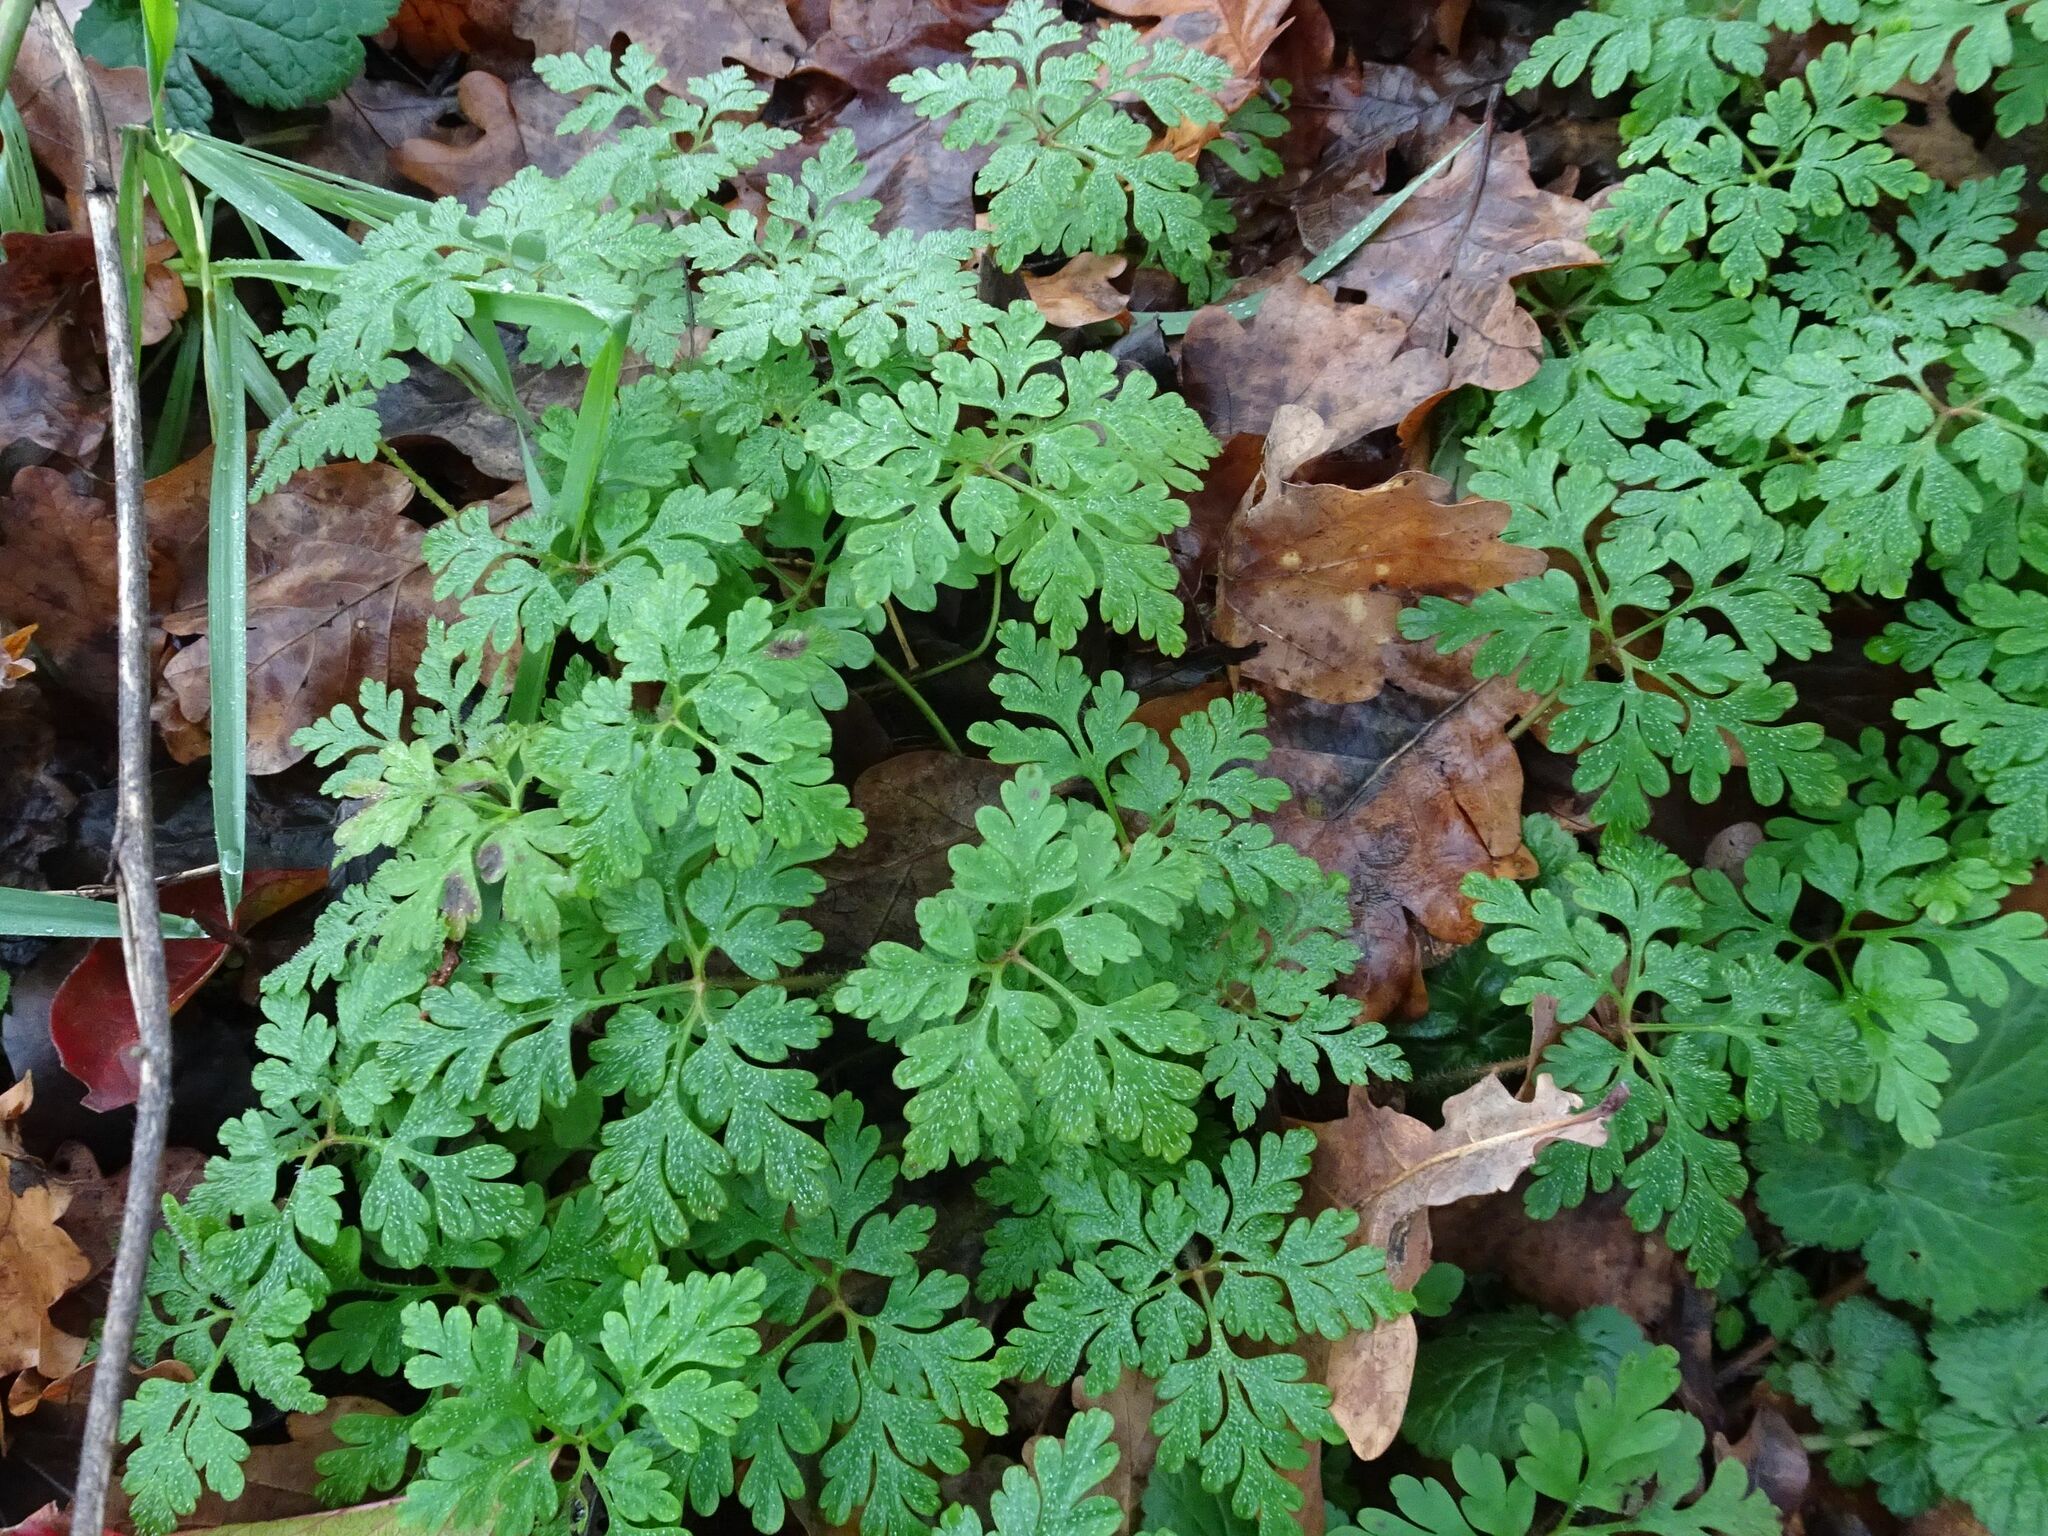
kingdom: Plantae
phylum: Tracheophyta
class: Magnoliopsida
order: Geraniales
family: Geraniaceae
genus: Geranium
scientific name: Geranium robertianum
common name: Herb-robert
